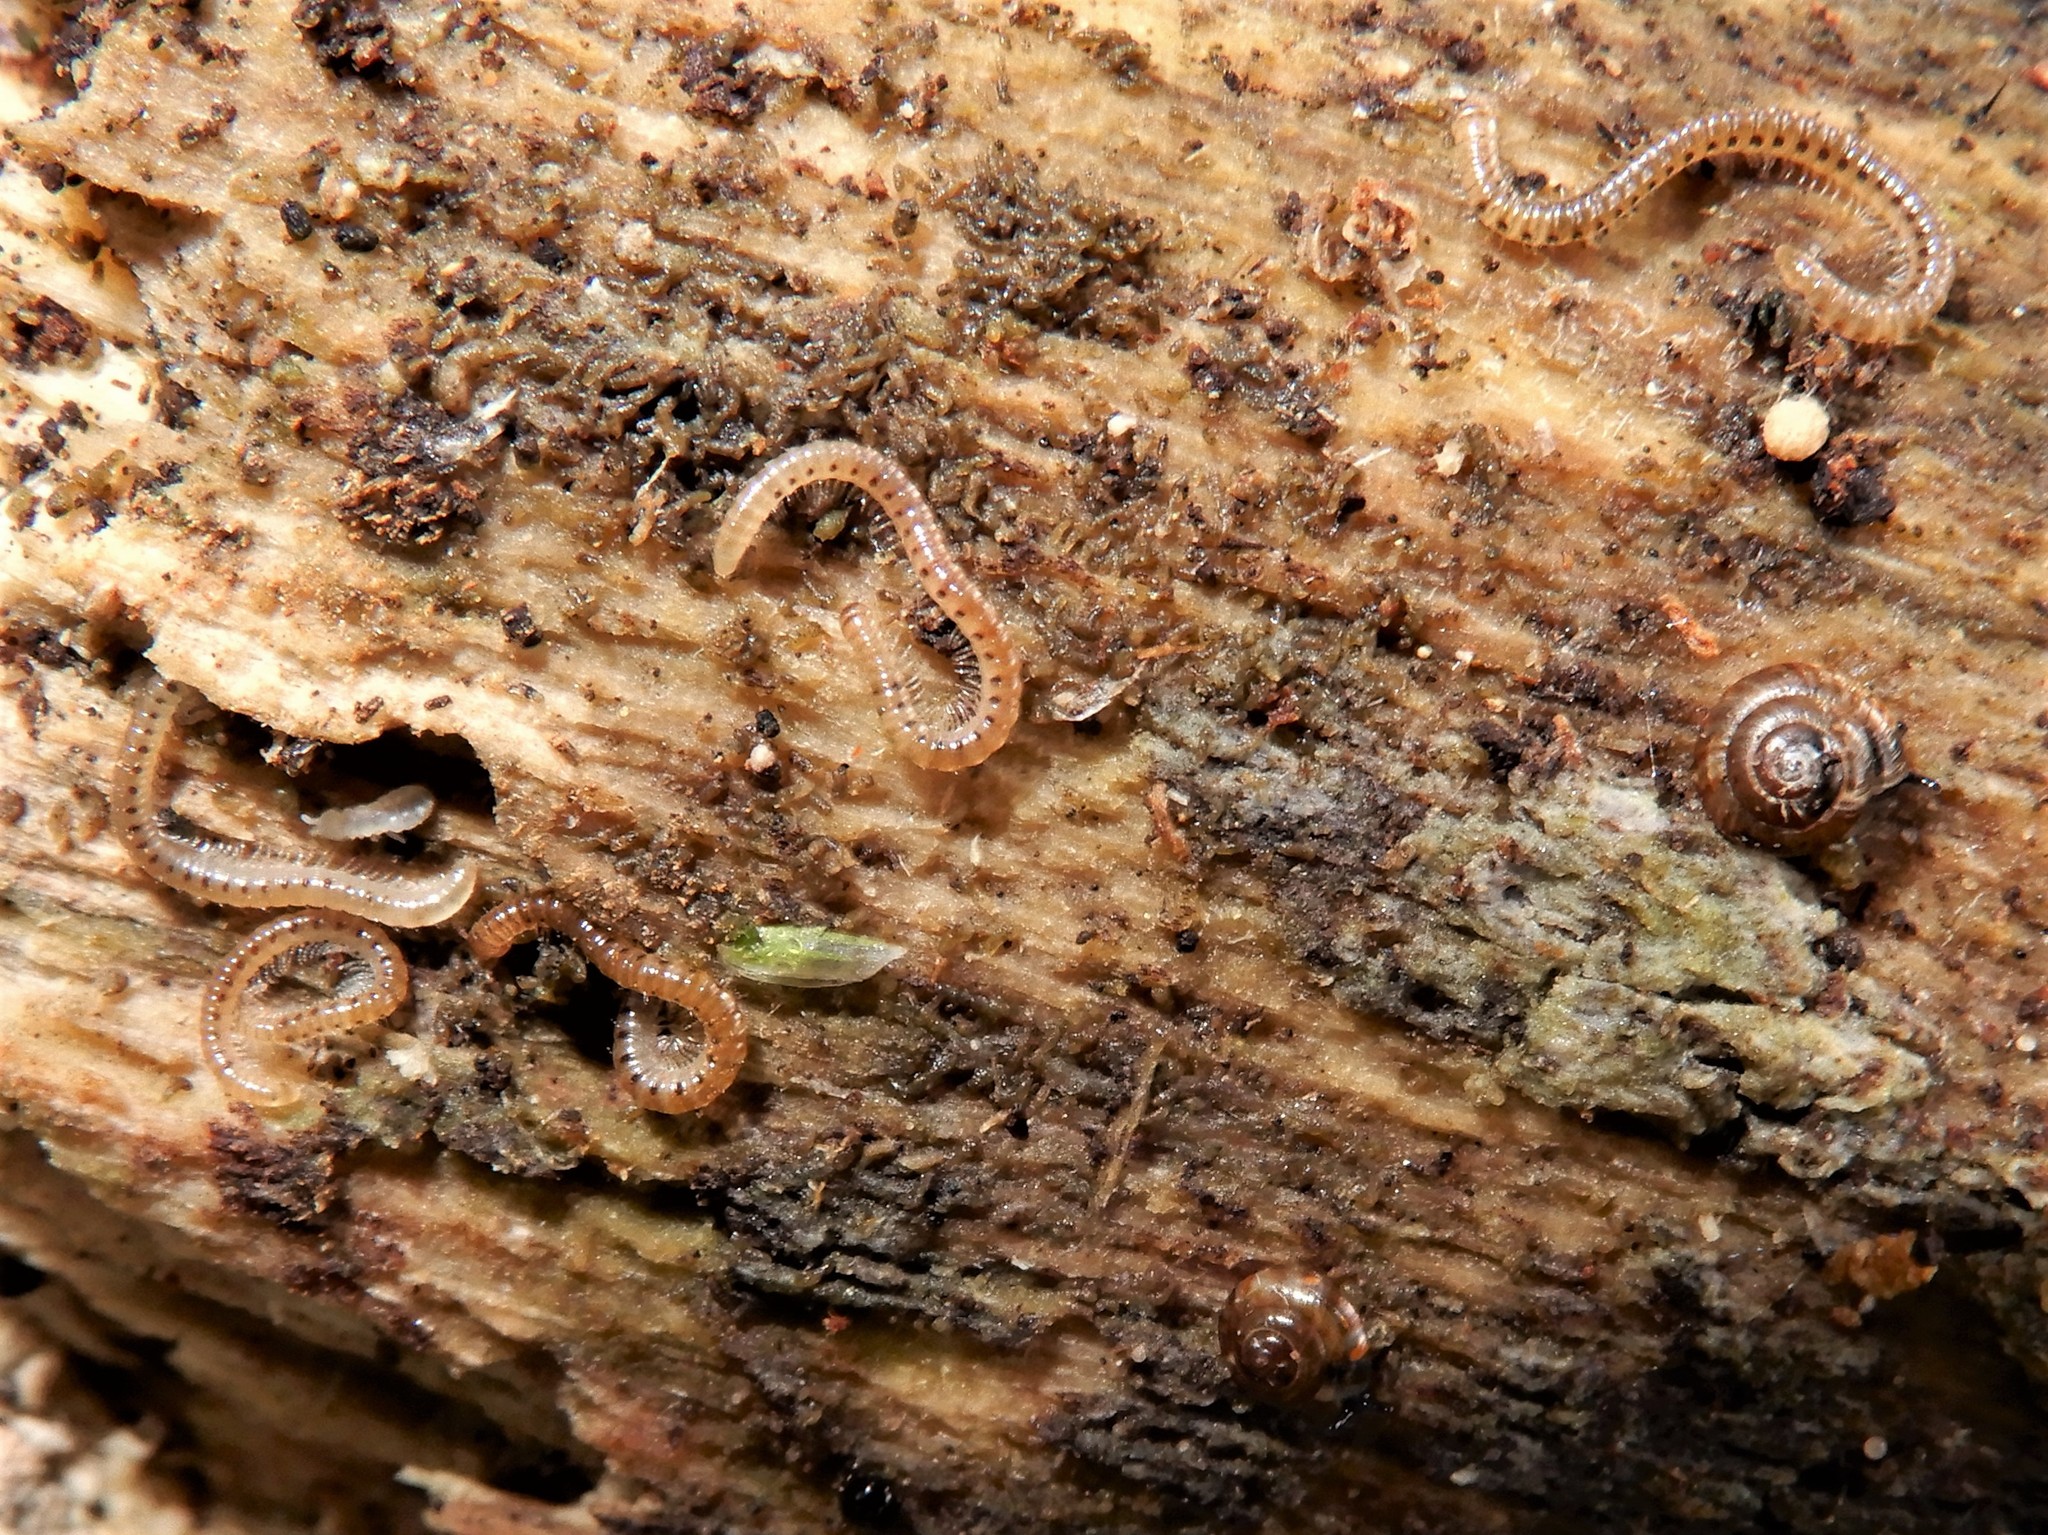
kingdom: Animalia
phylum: Arthropoda
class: Diplopoda
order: Julida
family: Blaniulidae
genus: Blaniulus
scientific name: Blaniulus guttulatus
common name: Spotted snake millipede
